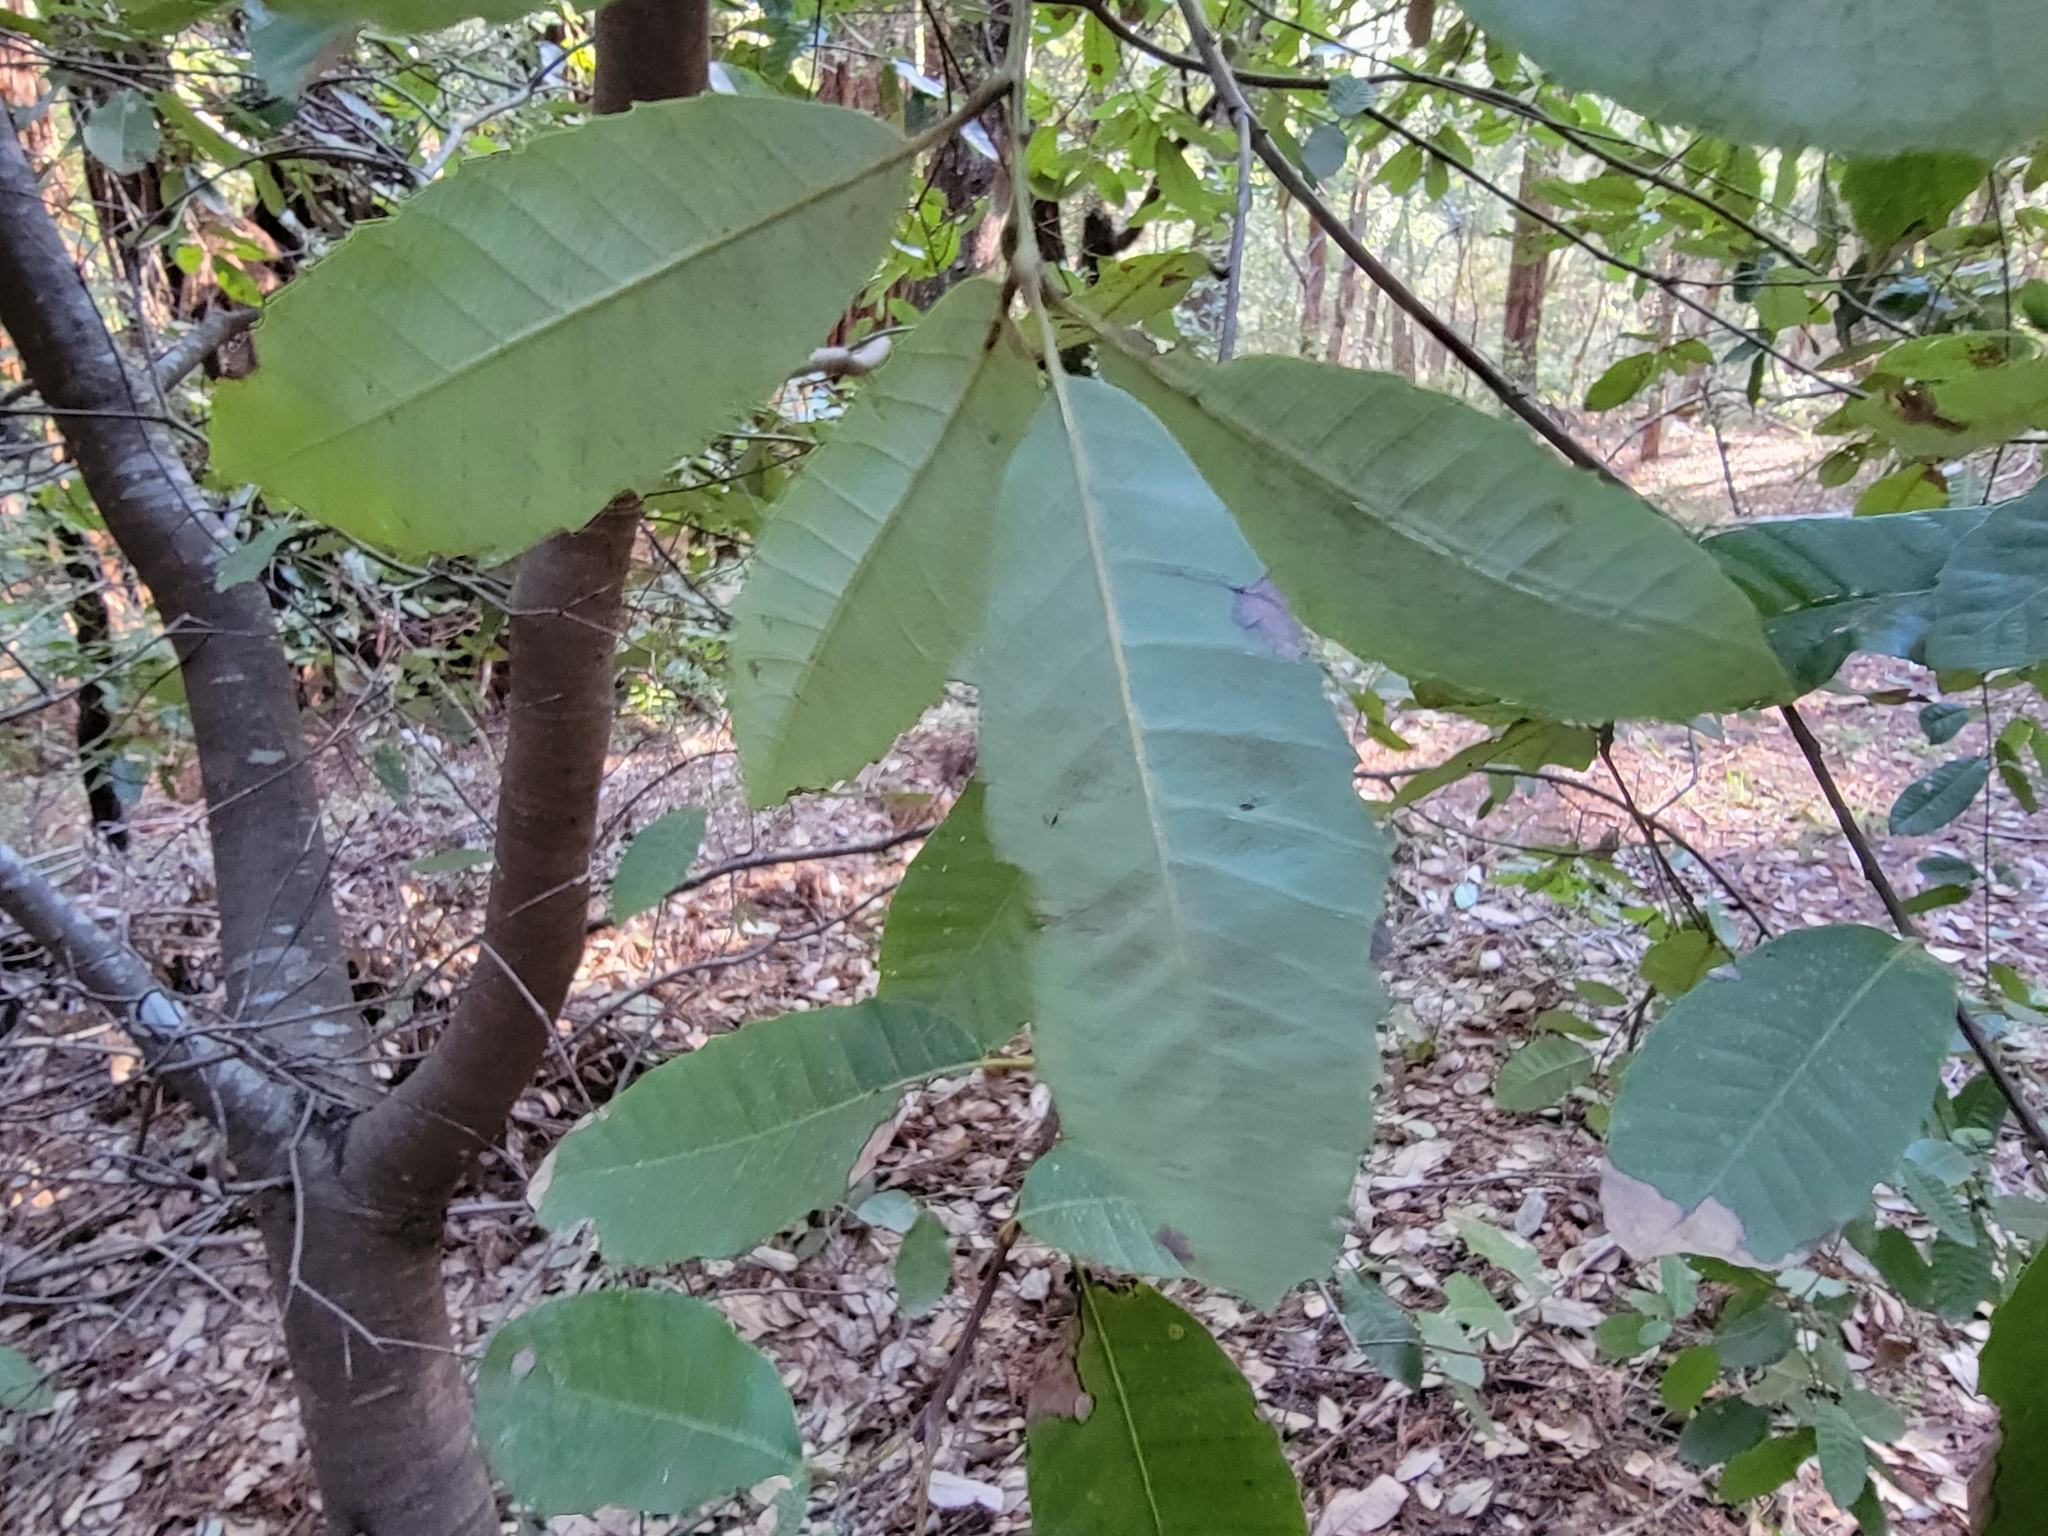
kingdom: Plantae
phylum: Tracheophyta
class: Magnoliopsida
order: Fagales
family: Fagaceae
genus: Notholithocarpus
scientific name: Notholithocarpus densiflorus
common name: Tan bark oak
